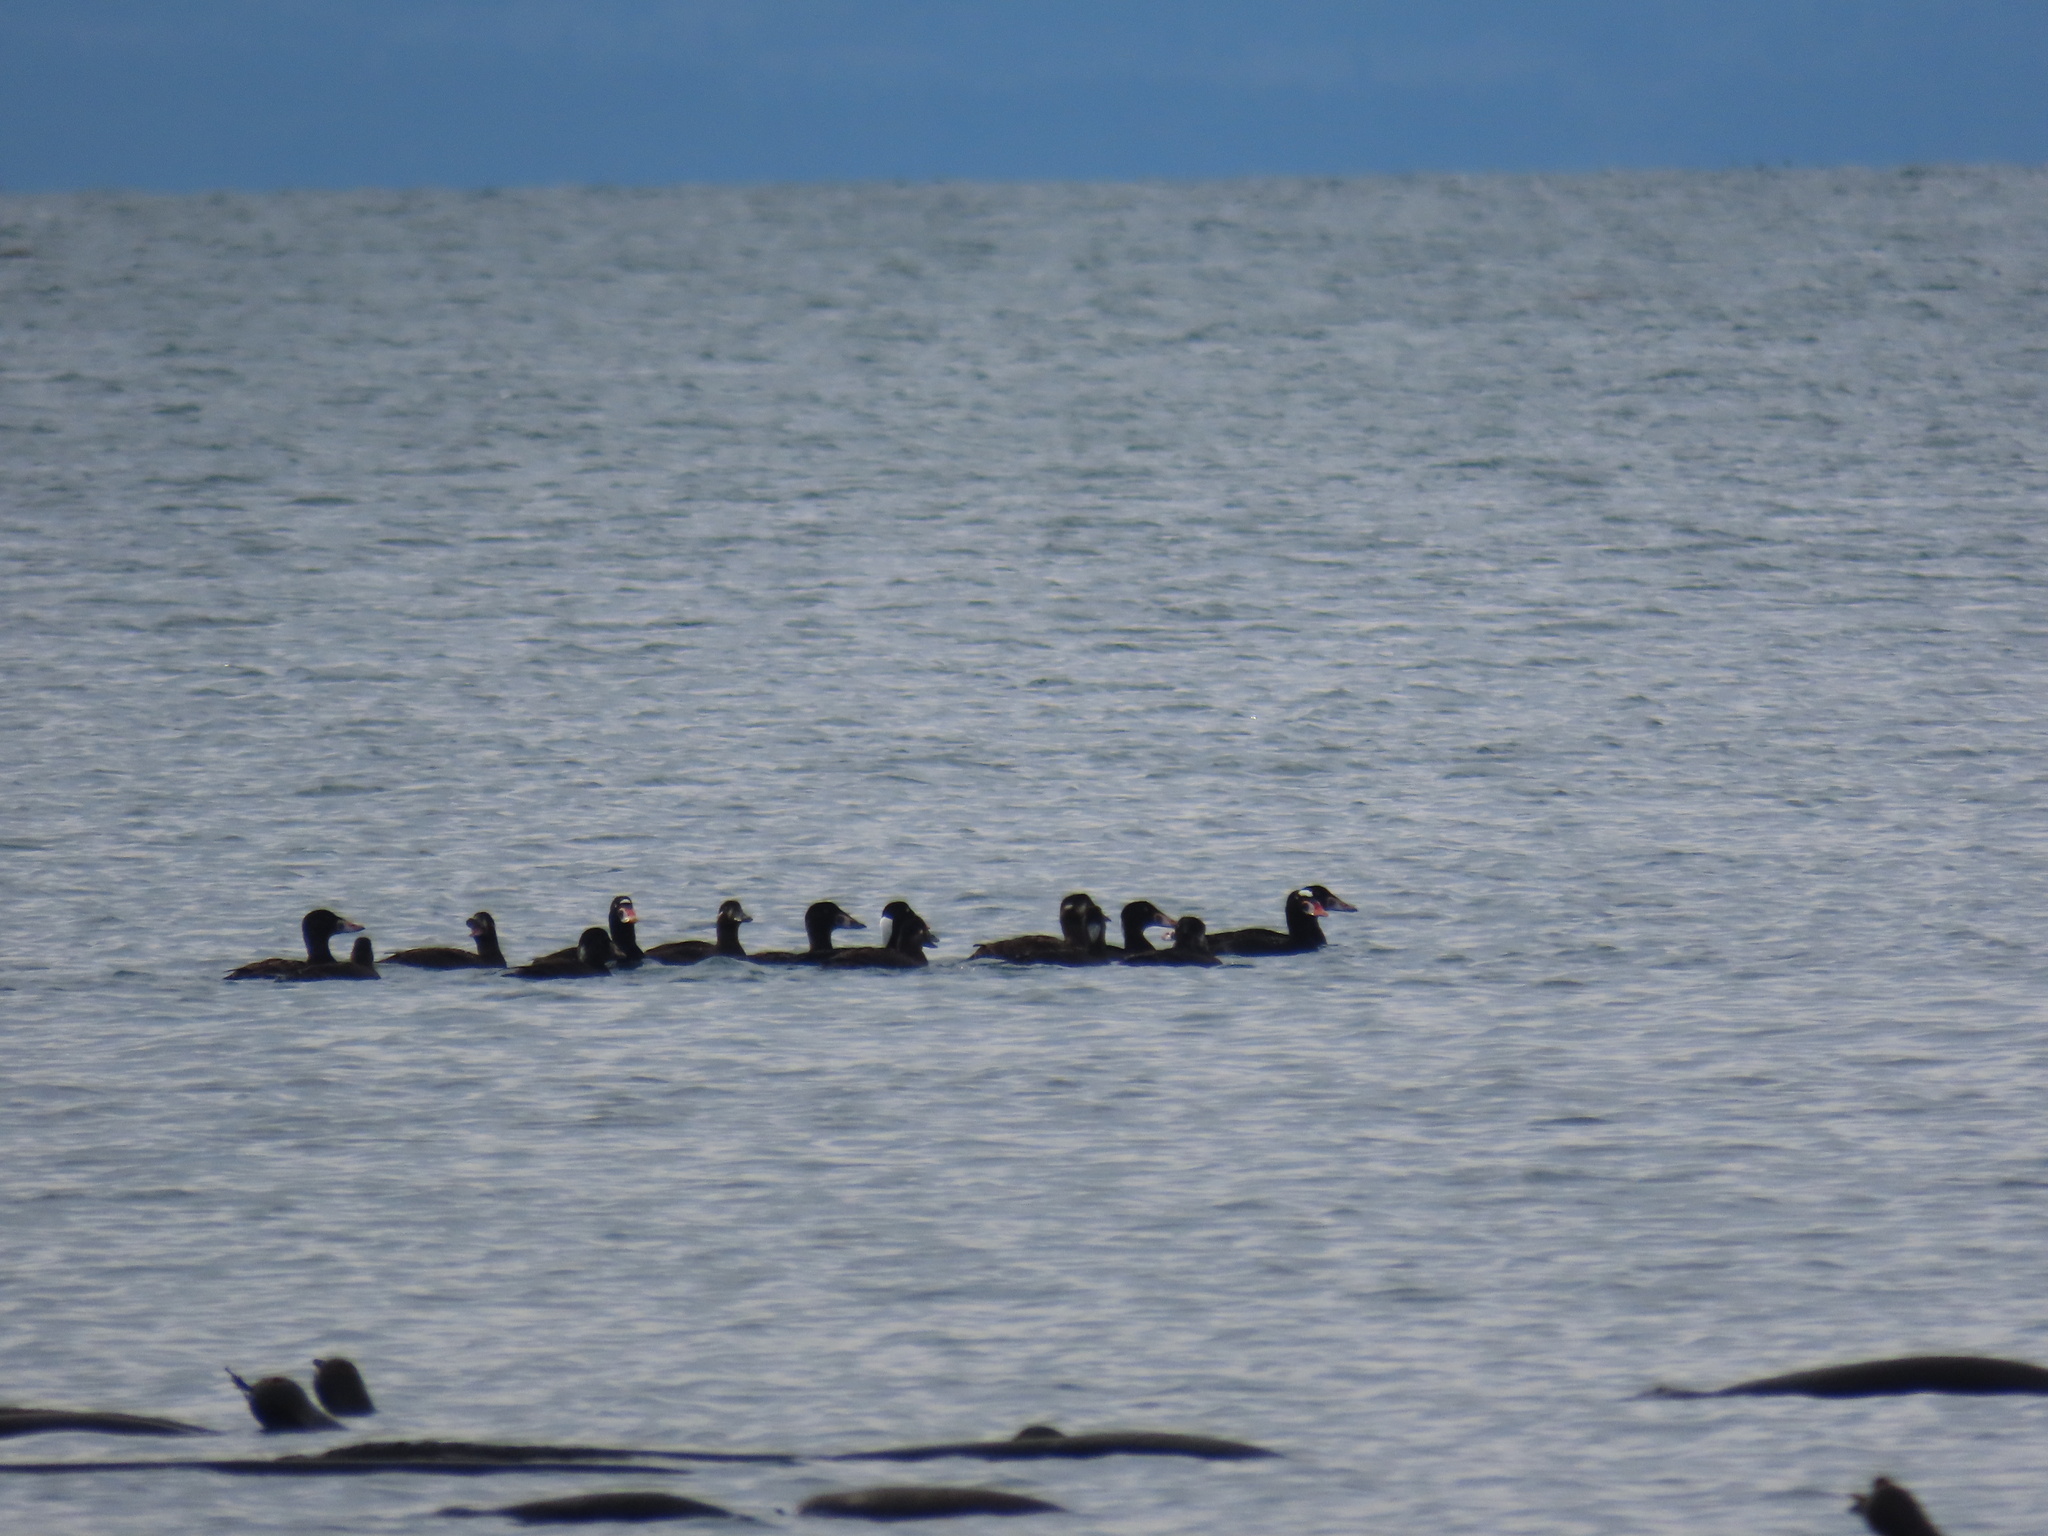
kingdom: Animalia
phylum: Chordata
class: Aves
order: Anseriformes
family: Anatidae
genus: Melanitta
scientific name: Melanitta perspicillata
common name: Surf scoter
